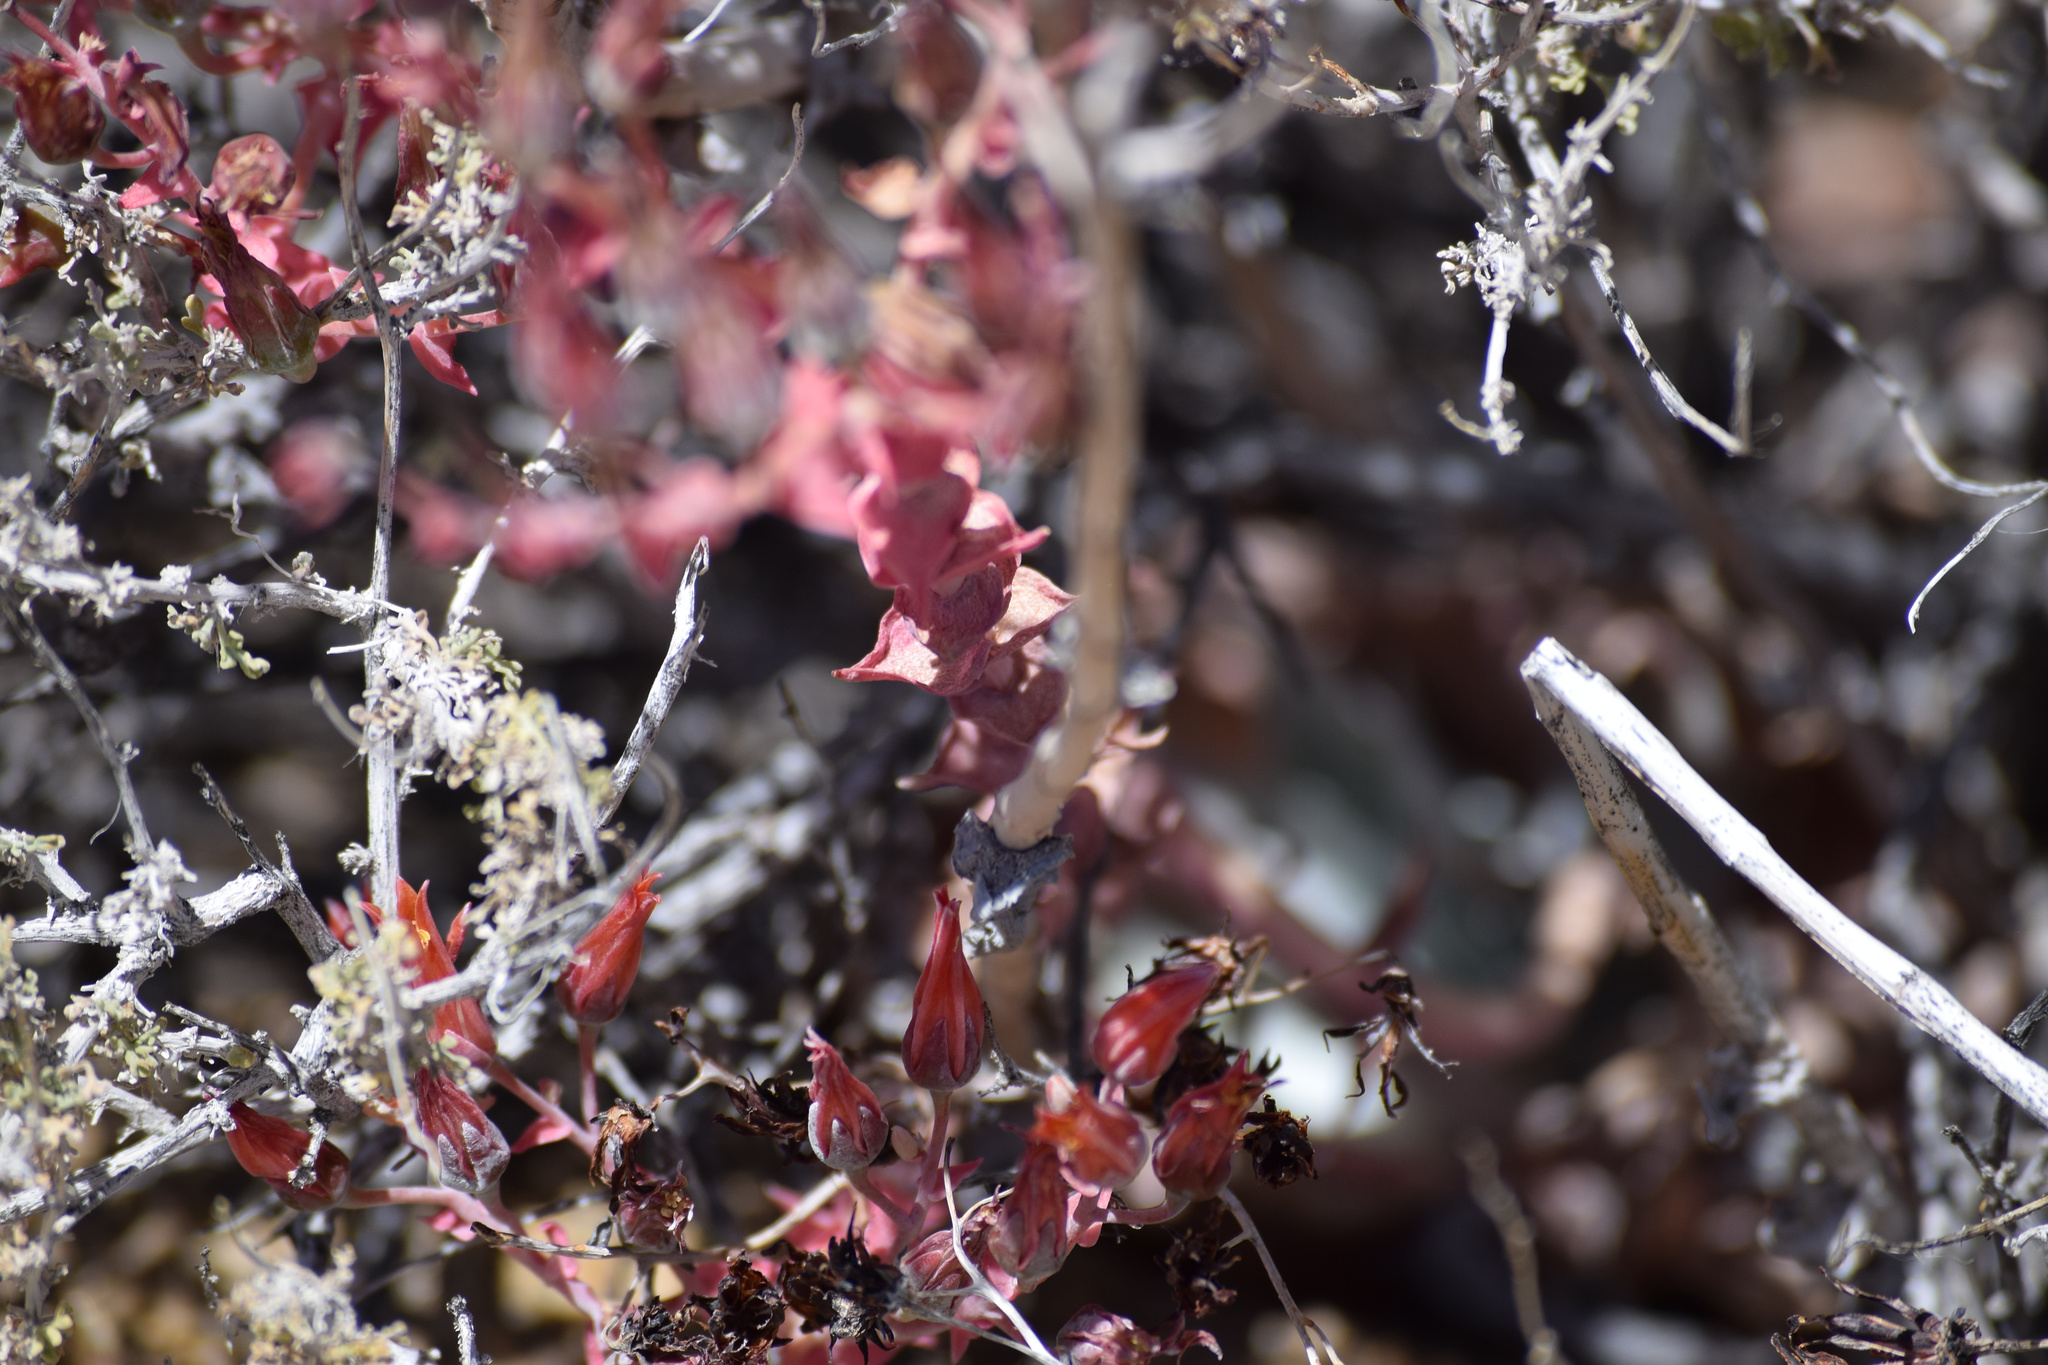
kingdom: Plantae
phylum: Tracheophyta
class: Magnoliopsida
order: Saxifragales
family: Crassulaceae
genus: Dudleya
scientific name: Dudleya arizonica
